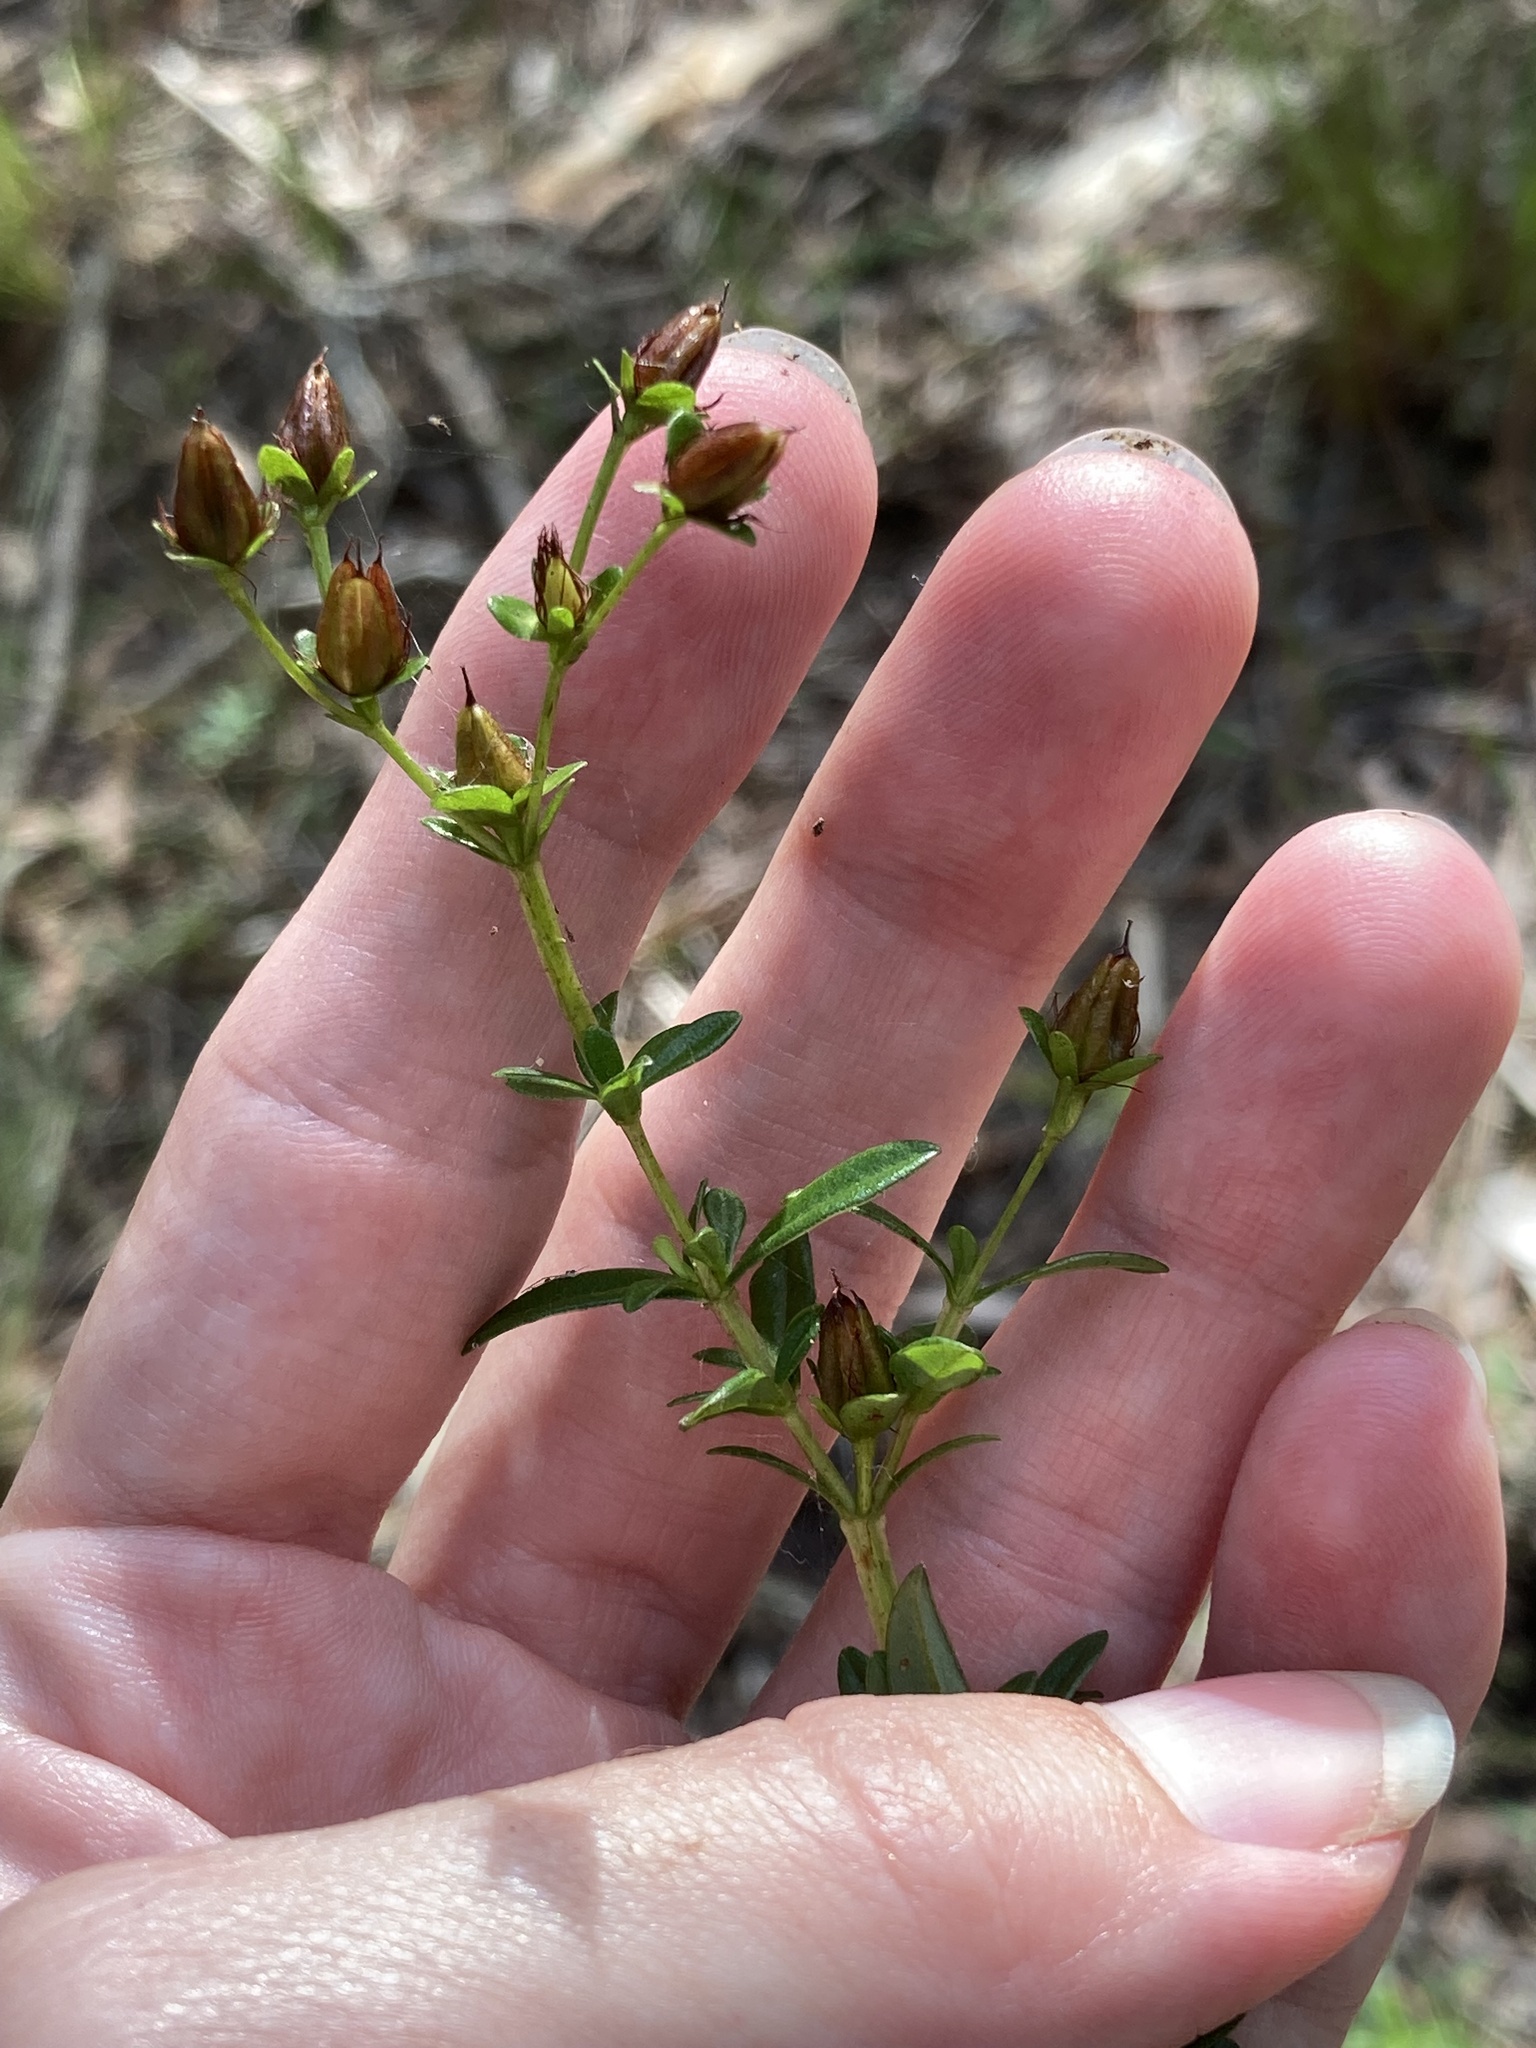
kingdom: Plantae
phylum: Tracheophyta
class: Magnoliopsida
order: Malpighiales
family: Hypericaceae
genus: Hypericum
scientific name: Hypericum cistifolium
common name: Round-pod st. john's-wort
